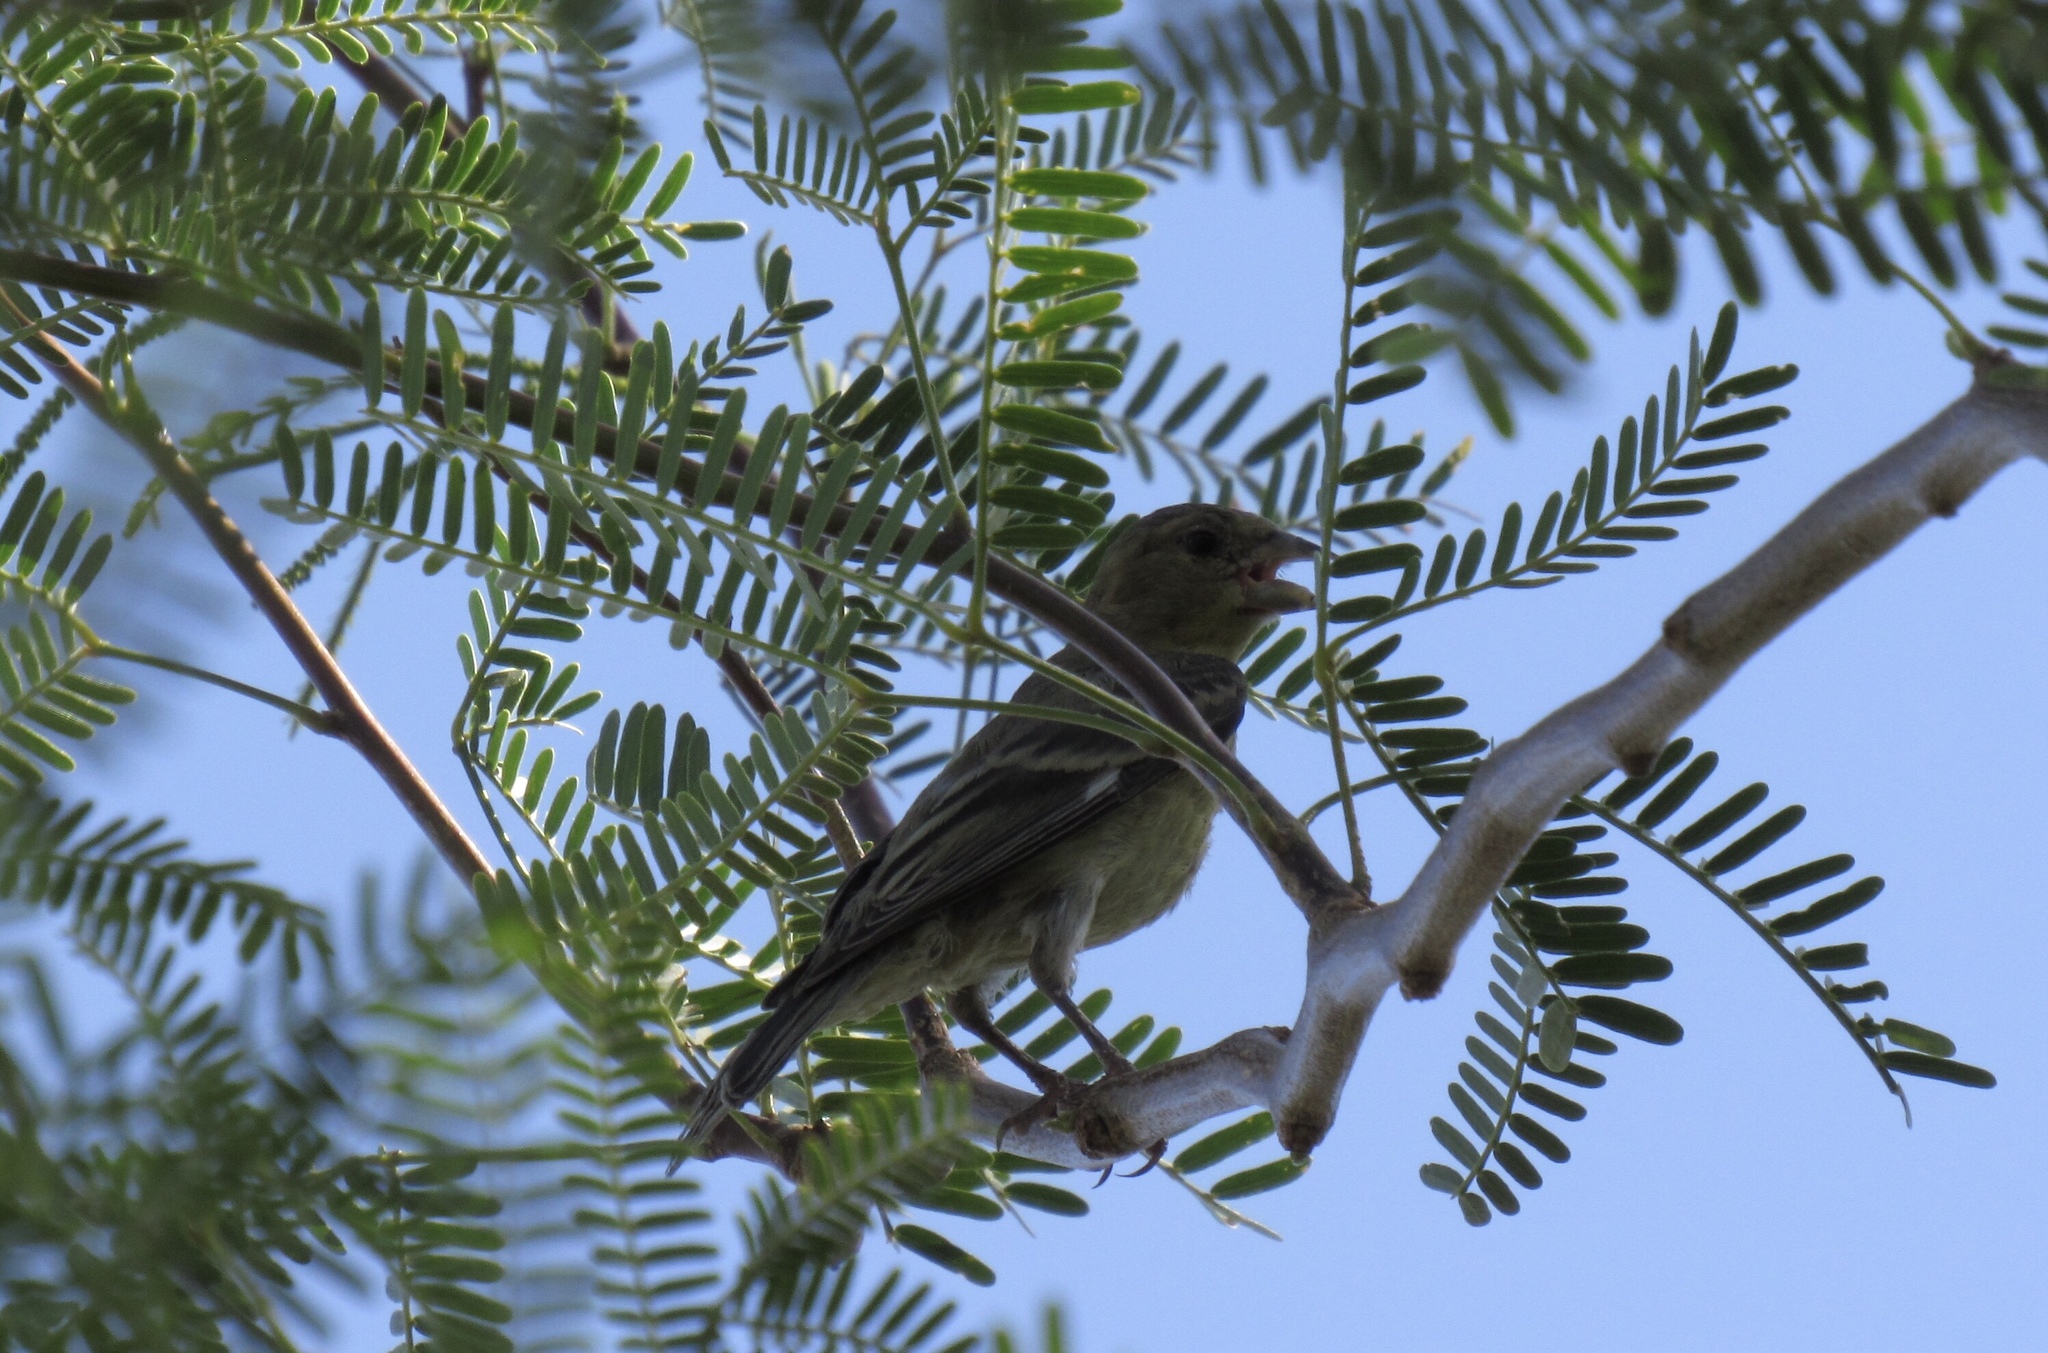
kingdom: Animalia
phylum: Chordata
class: Aves
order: Passeriformes
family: Fringillidae
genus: Haemorhous
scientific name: Haemorhous mexicanus
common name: House finch
